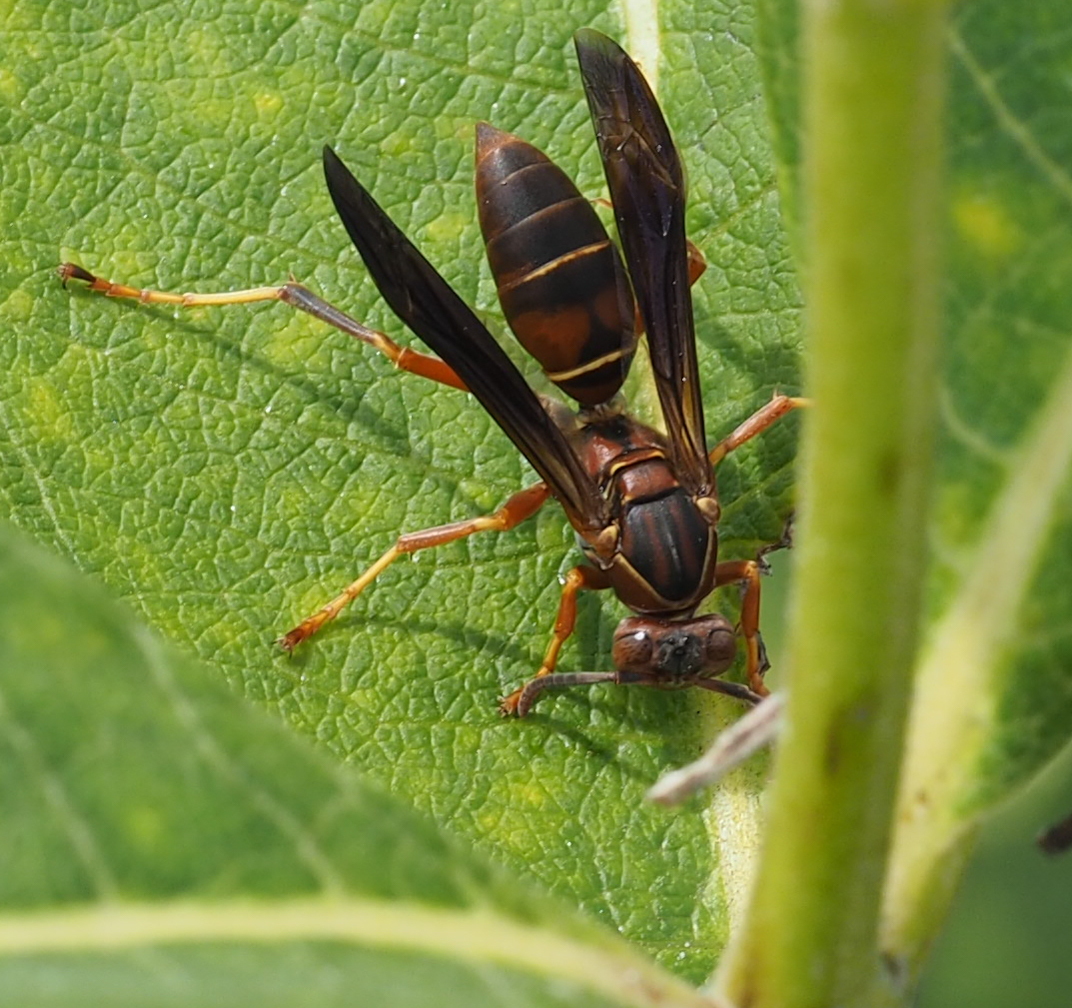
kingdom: Animalia
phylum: Arthropoda
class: Insecta
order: Hymenoptera
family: Eumenidae
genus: Polistes
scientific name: Polistes fuscatus
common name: Dark paper wasp
